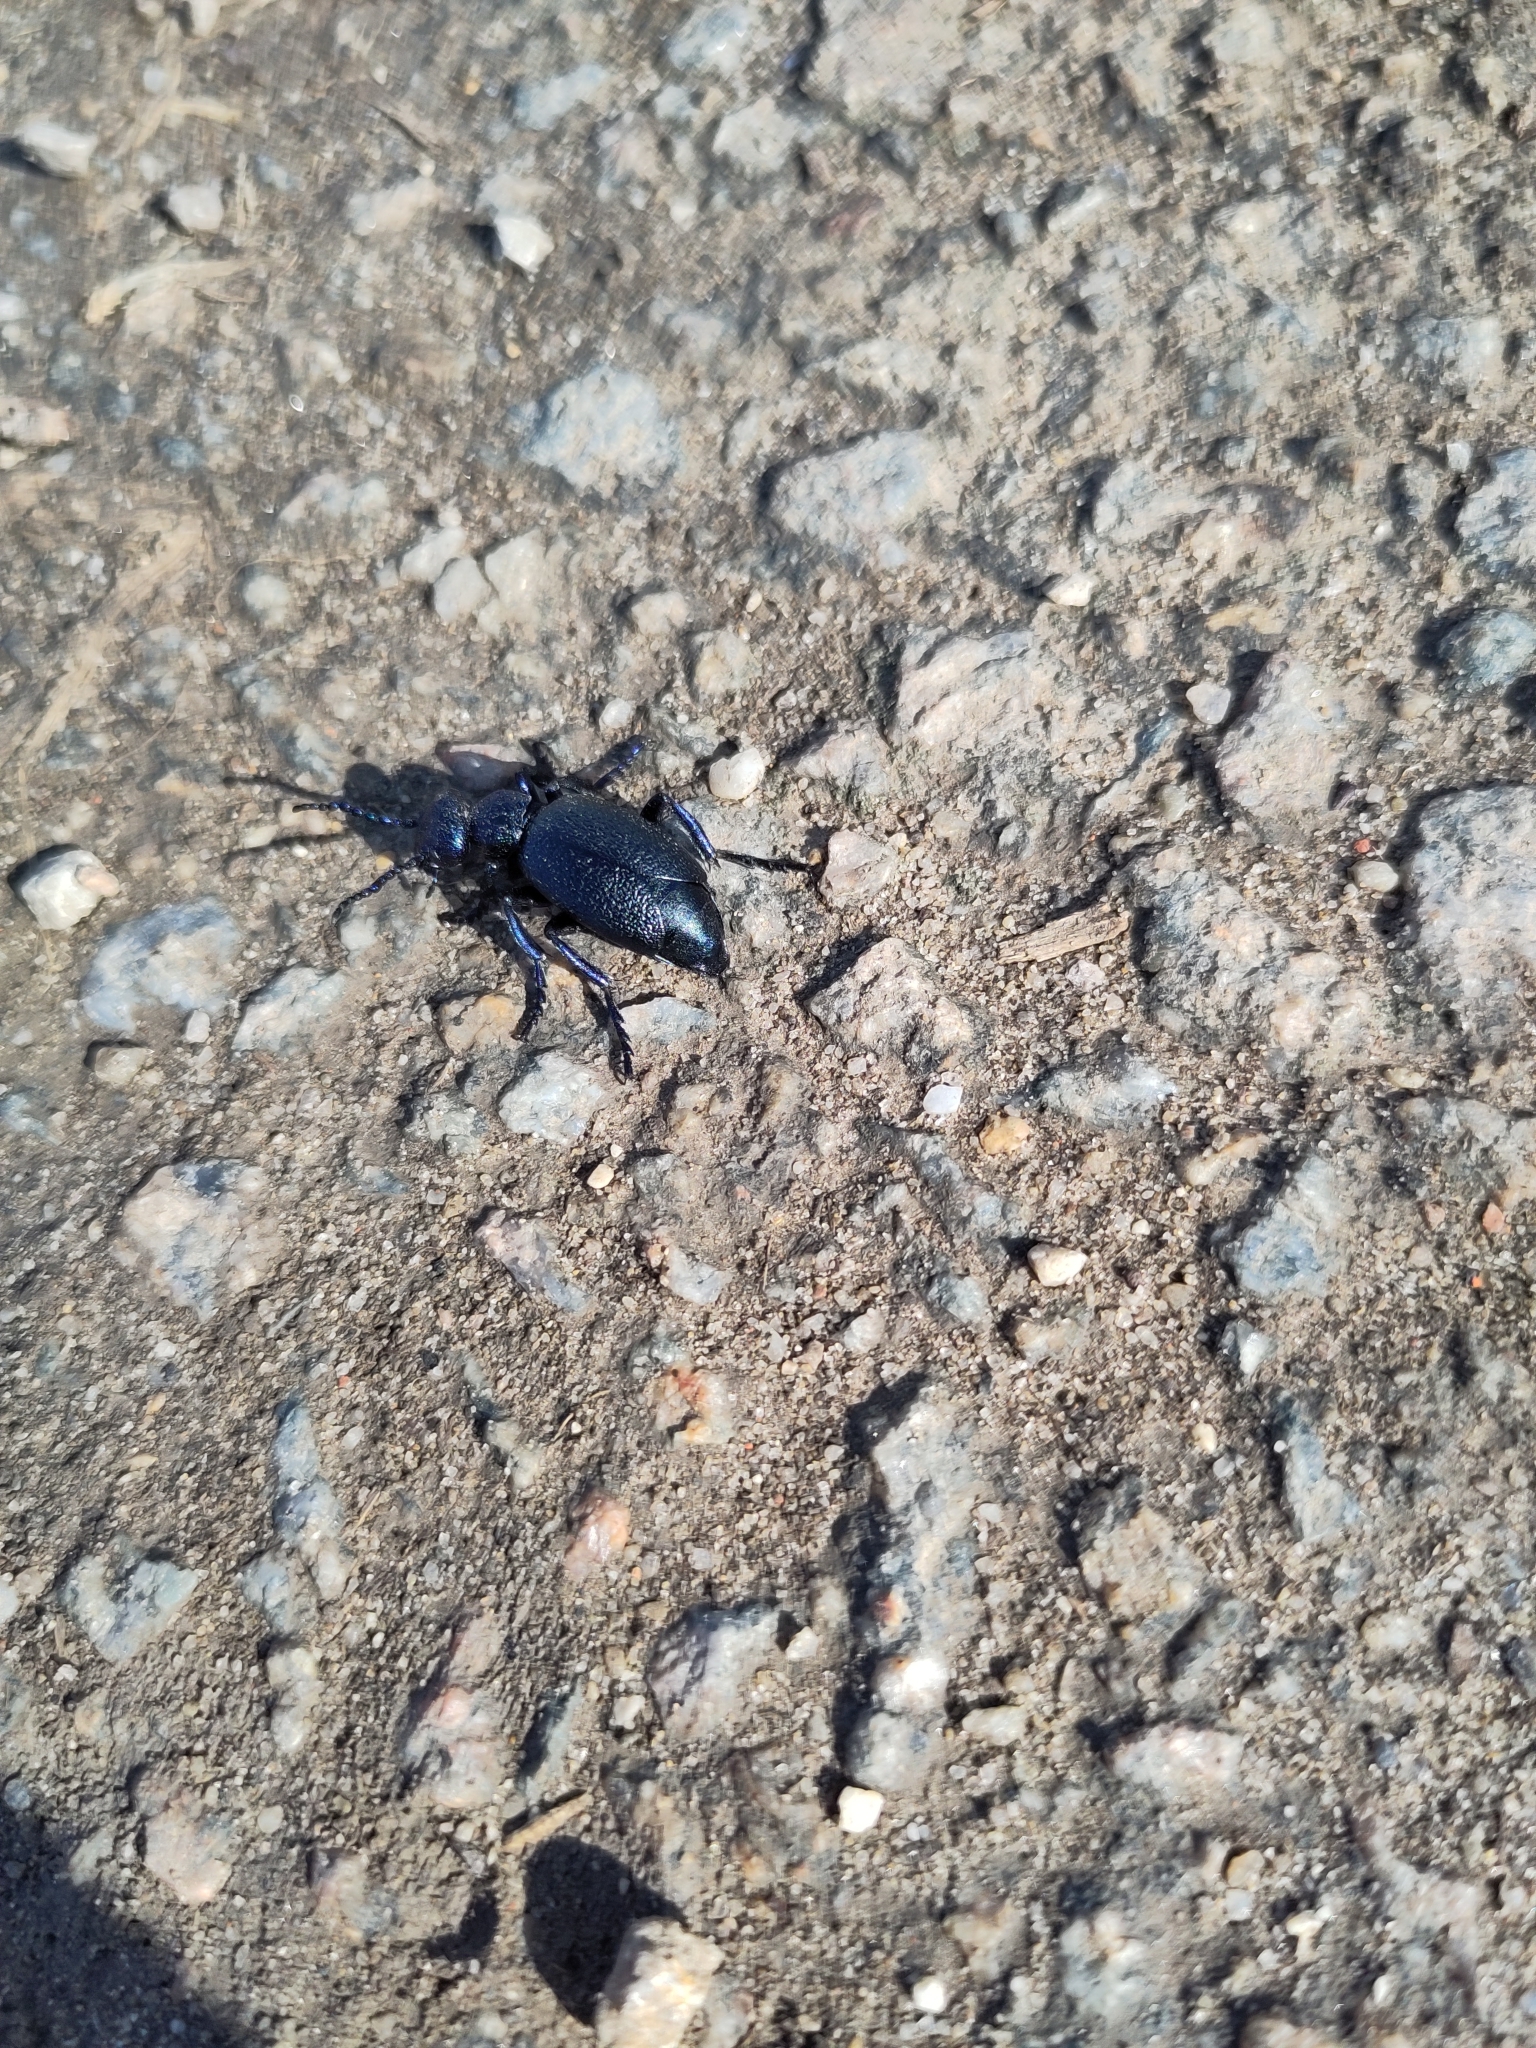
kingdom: Animalia
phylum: Arthropoda
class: Insecta
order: Coleoptera
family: Meloidae
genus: Meloe
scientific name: Meloe proscarabaeus
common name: Black oil-beetle
